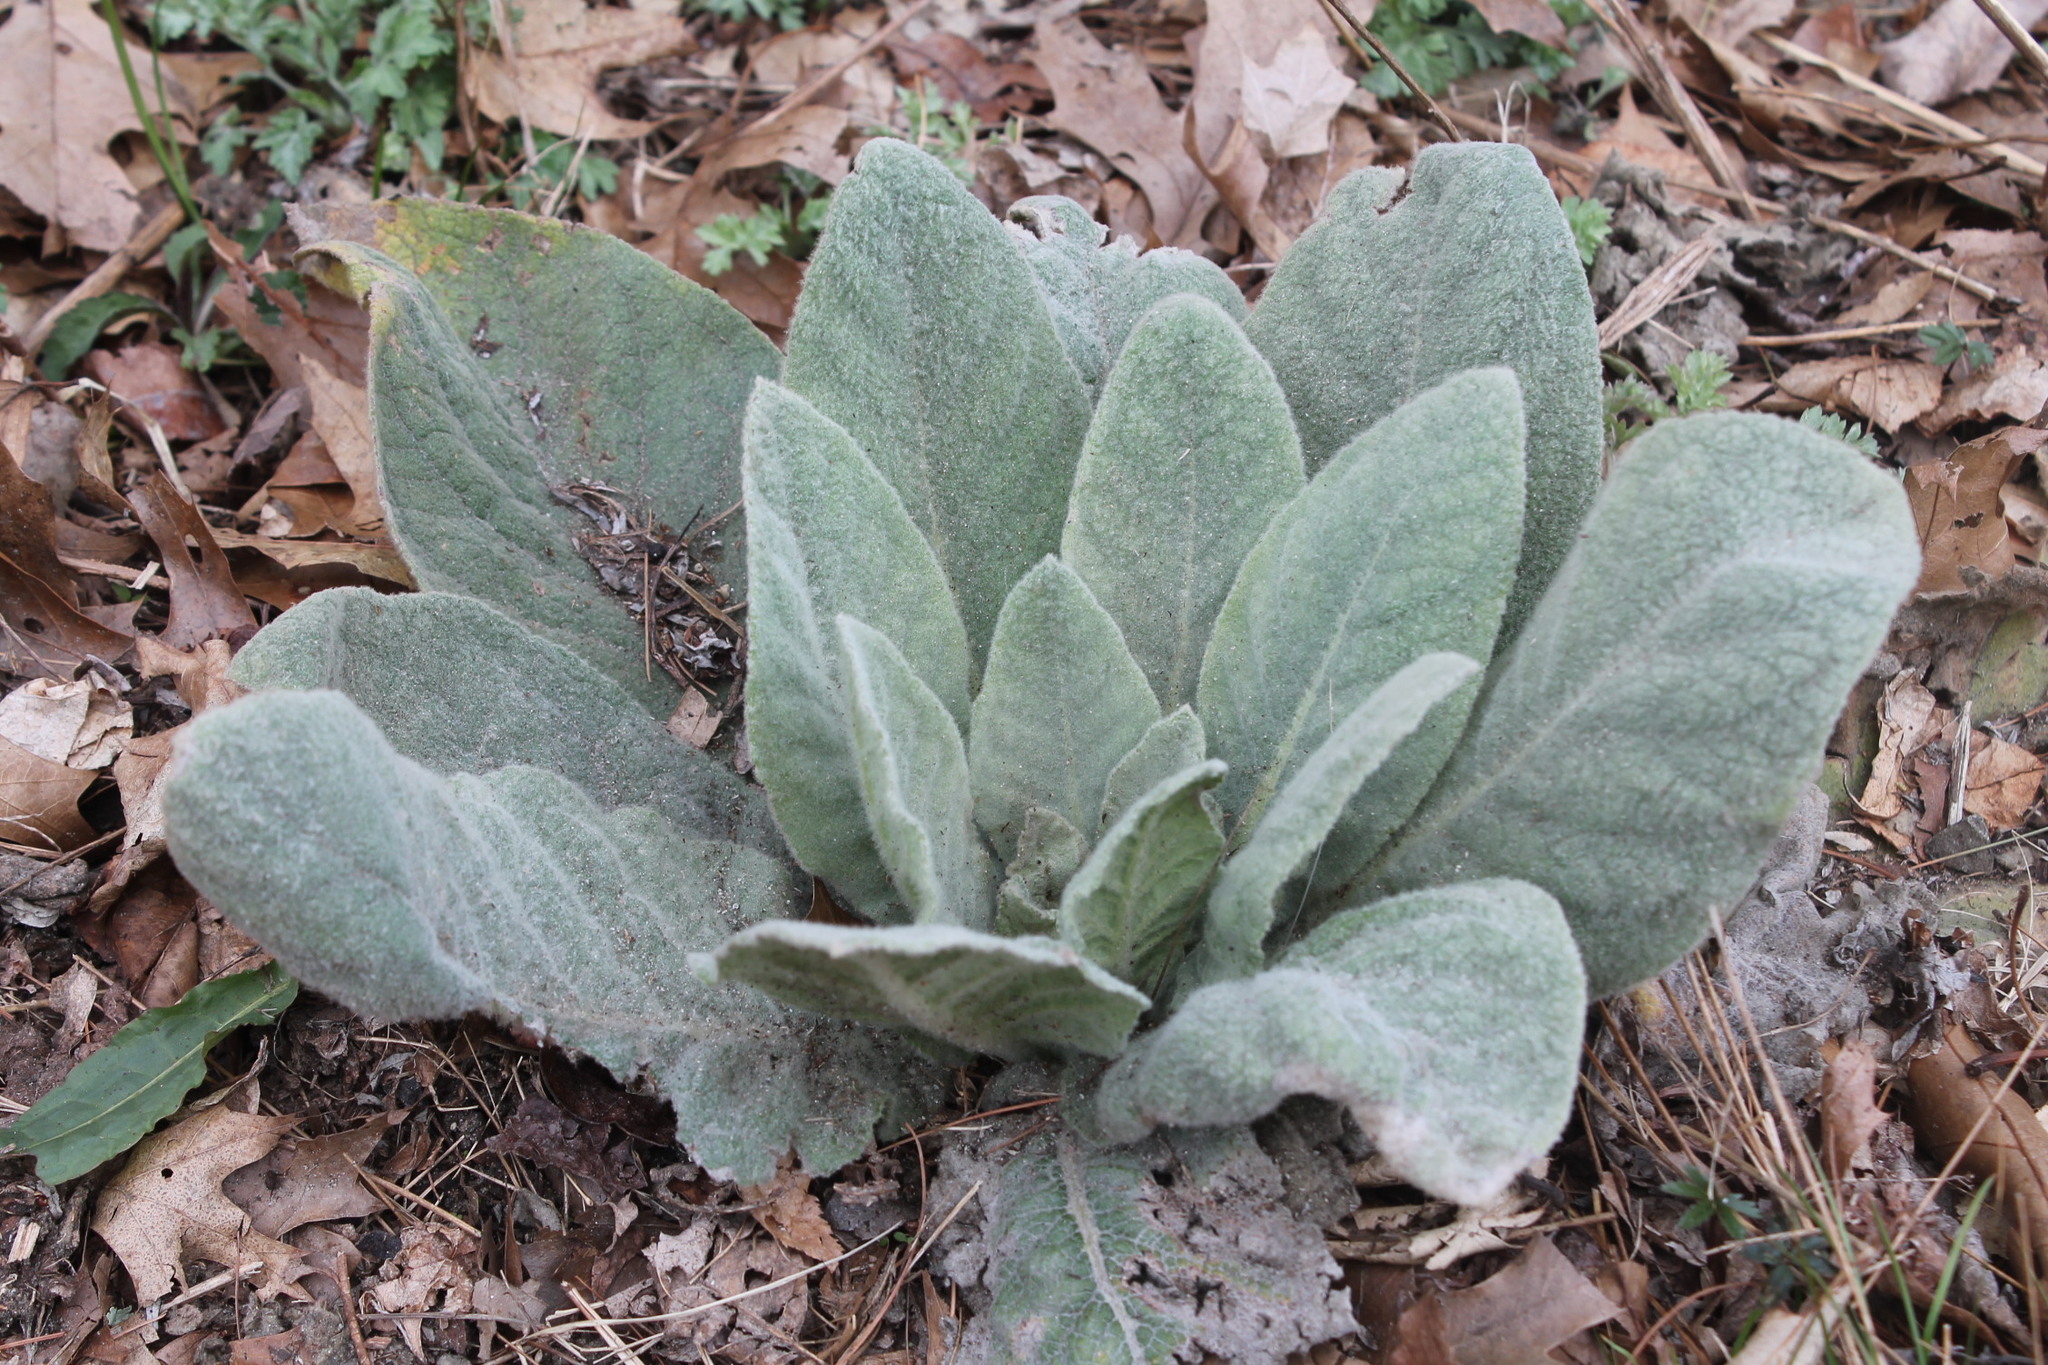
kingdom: Plantae
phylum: Tracheophyta
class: Magnoliopsida
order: Lamiales
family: Scrophulariaceae
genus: Verbascum
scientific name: Verbascum thapsus
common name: Common mullein
